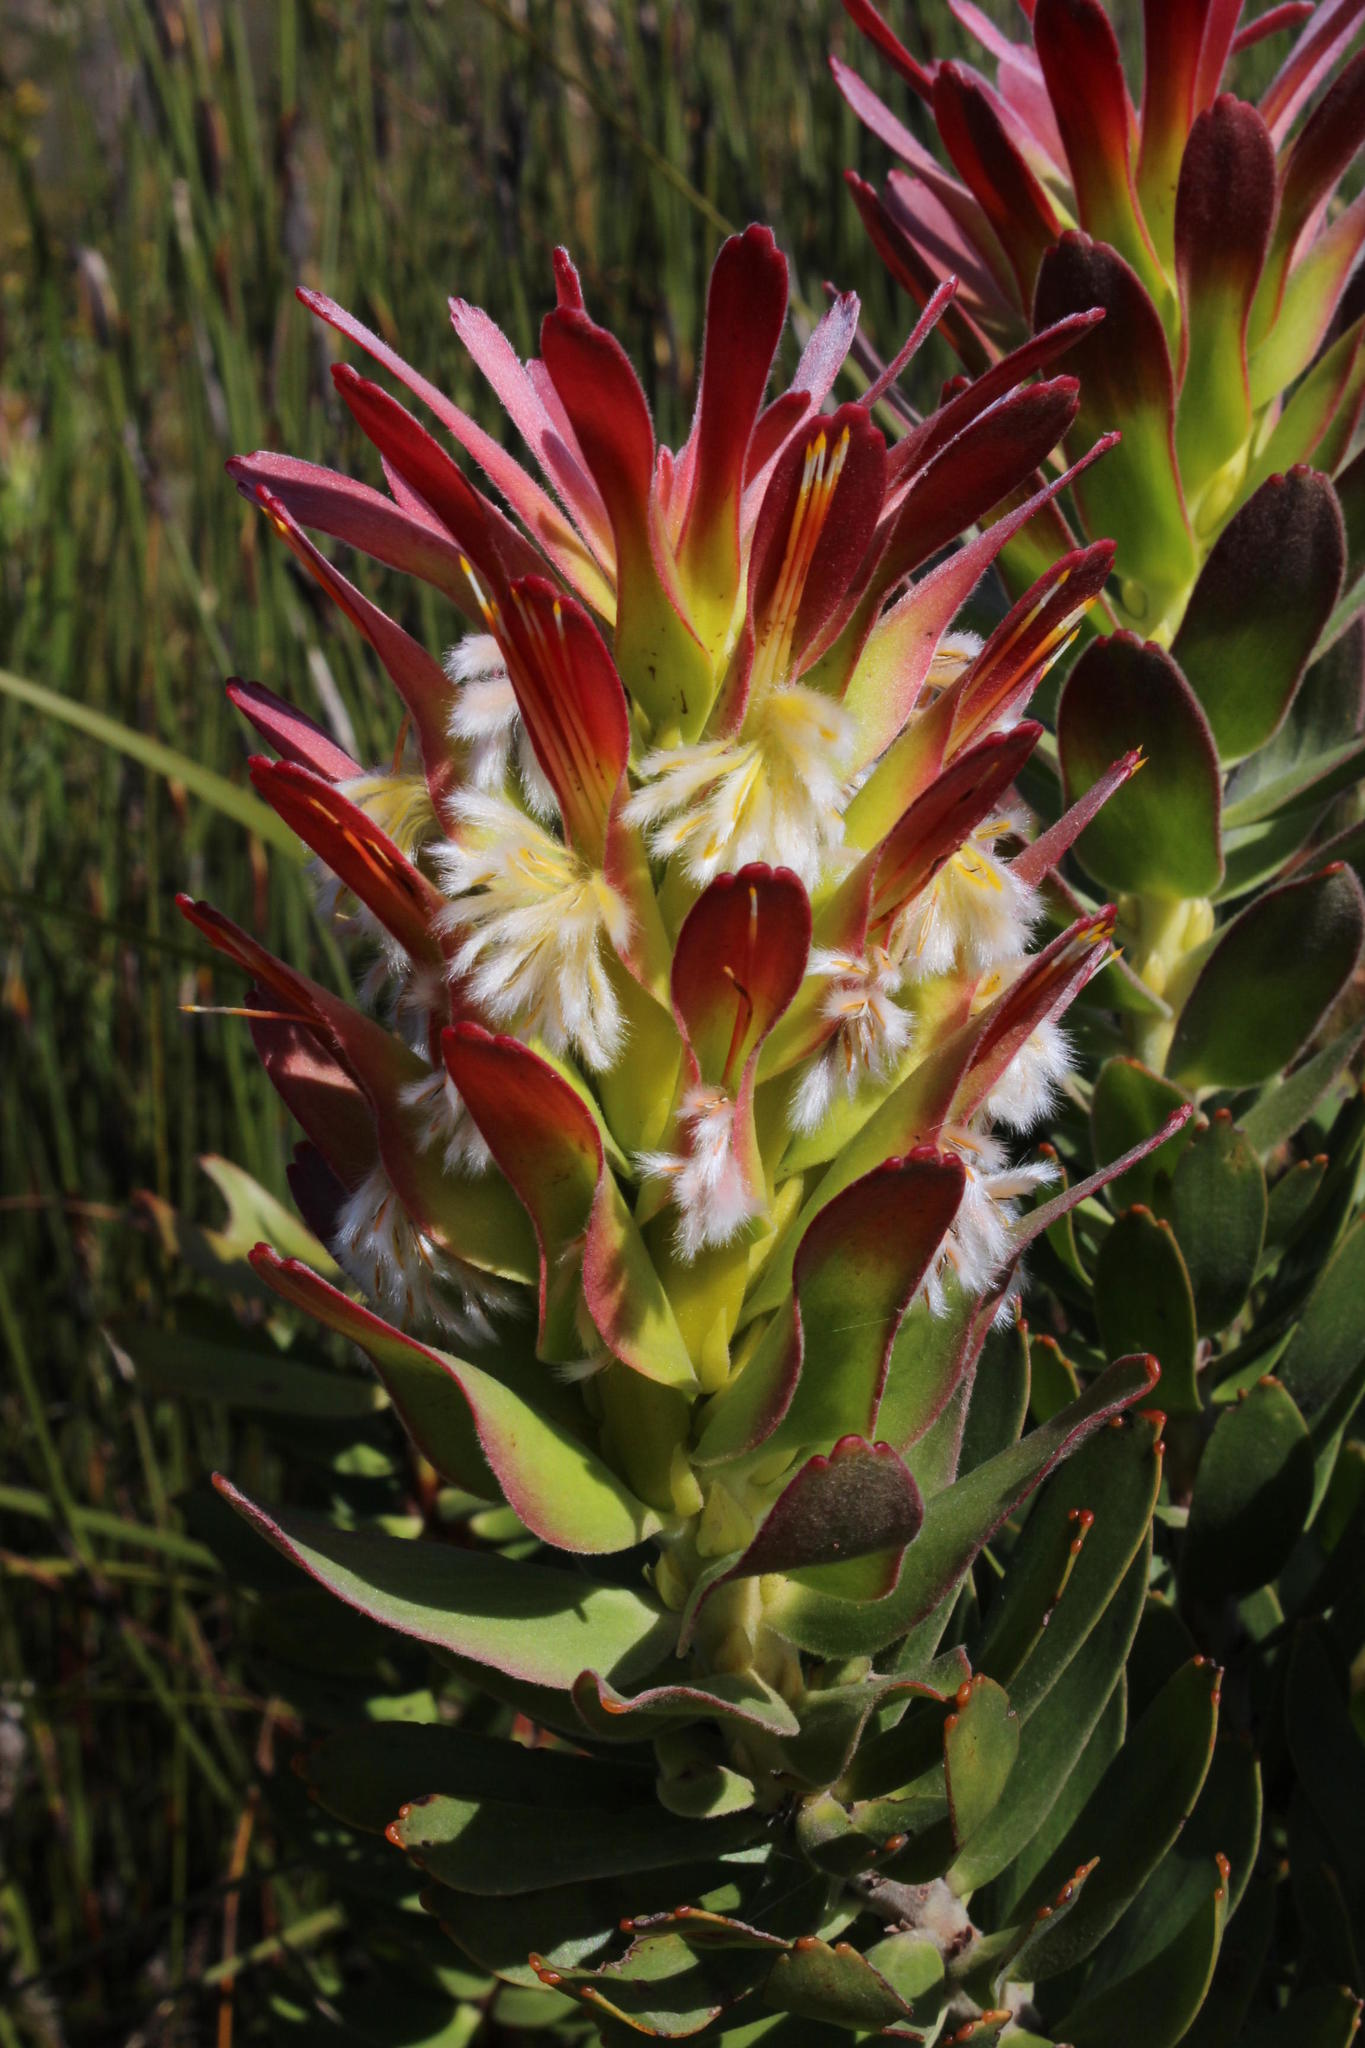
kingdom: Plantae
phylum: Tracheophyta
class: Magnoliopsida
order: Proteales
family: Proteaceae
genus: Mimetes
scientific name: Mimetes cucullatus
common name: Common pagoda
